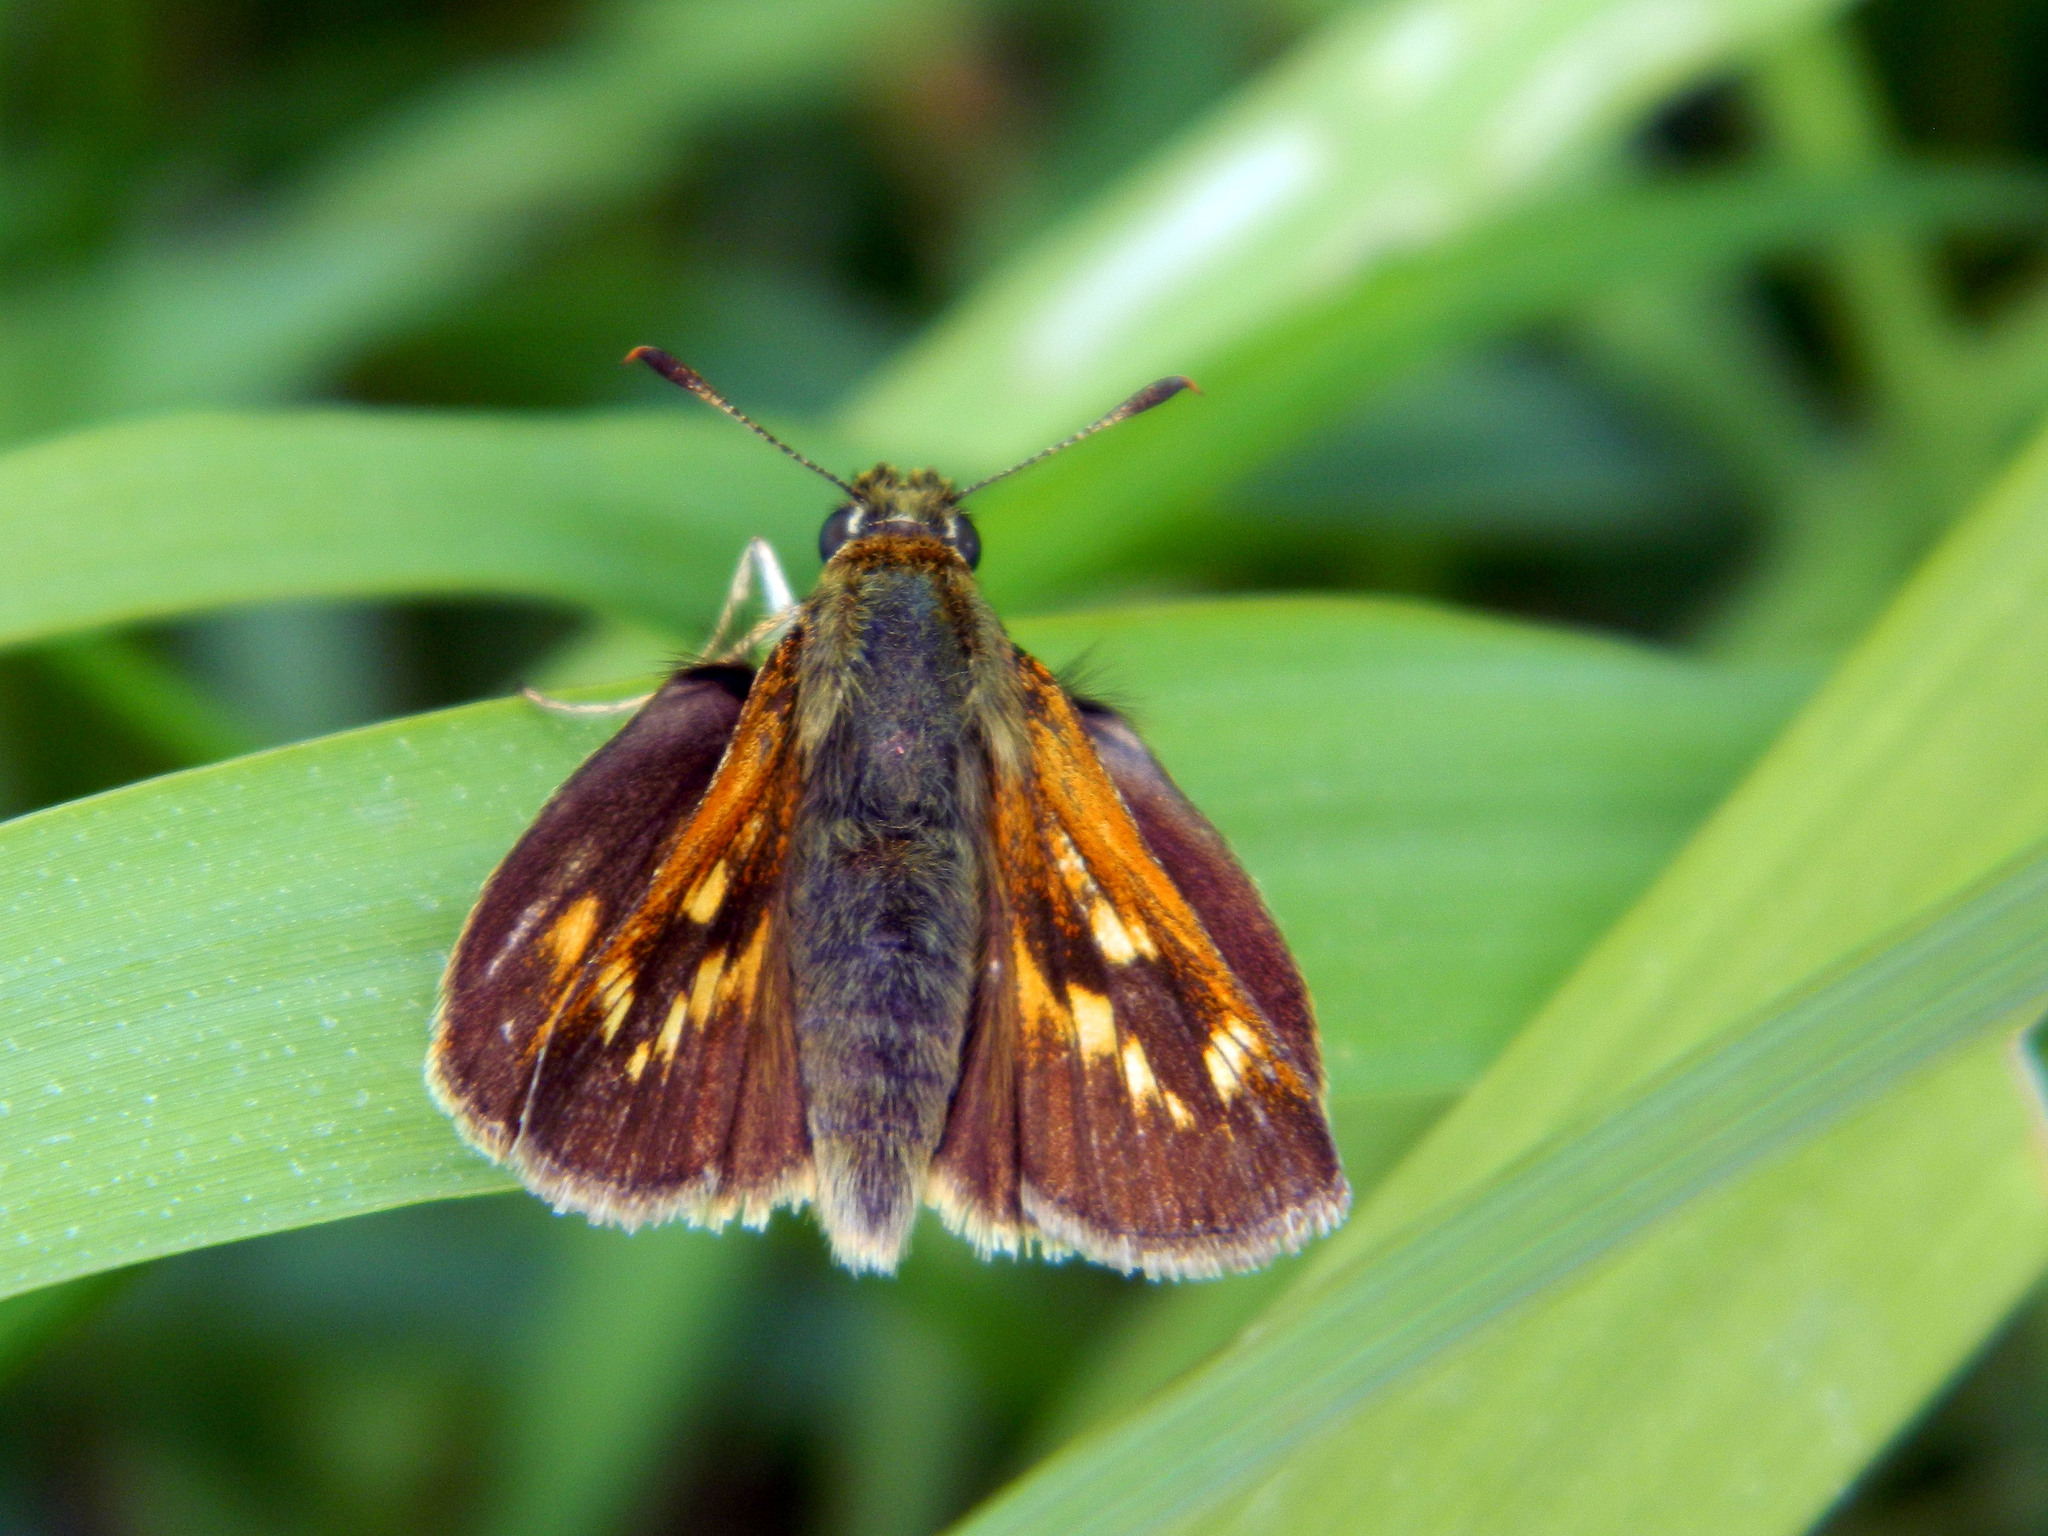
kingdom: Animalia
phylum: Arthropoda
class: Insecta
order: Lepidoptera
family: Hesperiidae
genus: Polites
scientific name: Polites mystic
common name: Long dash
